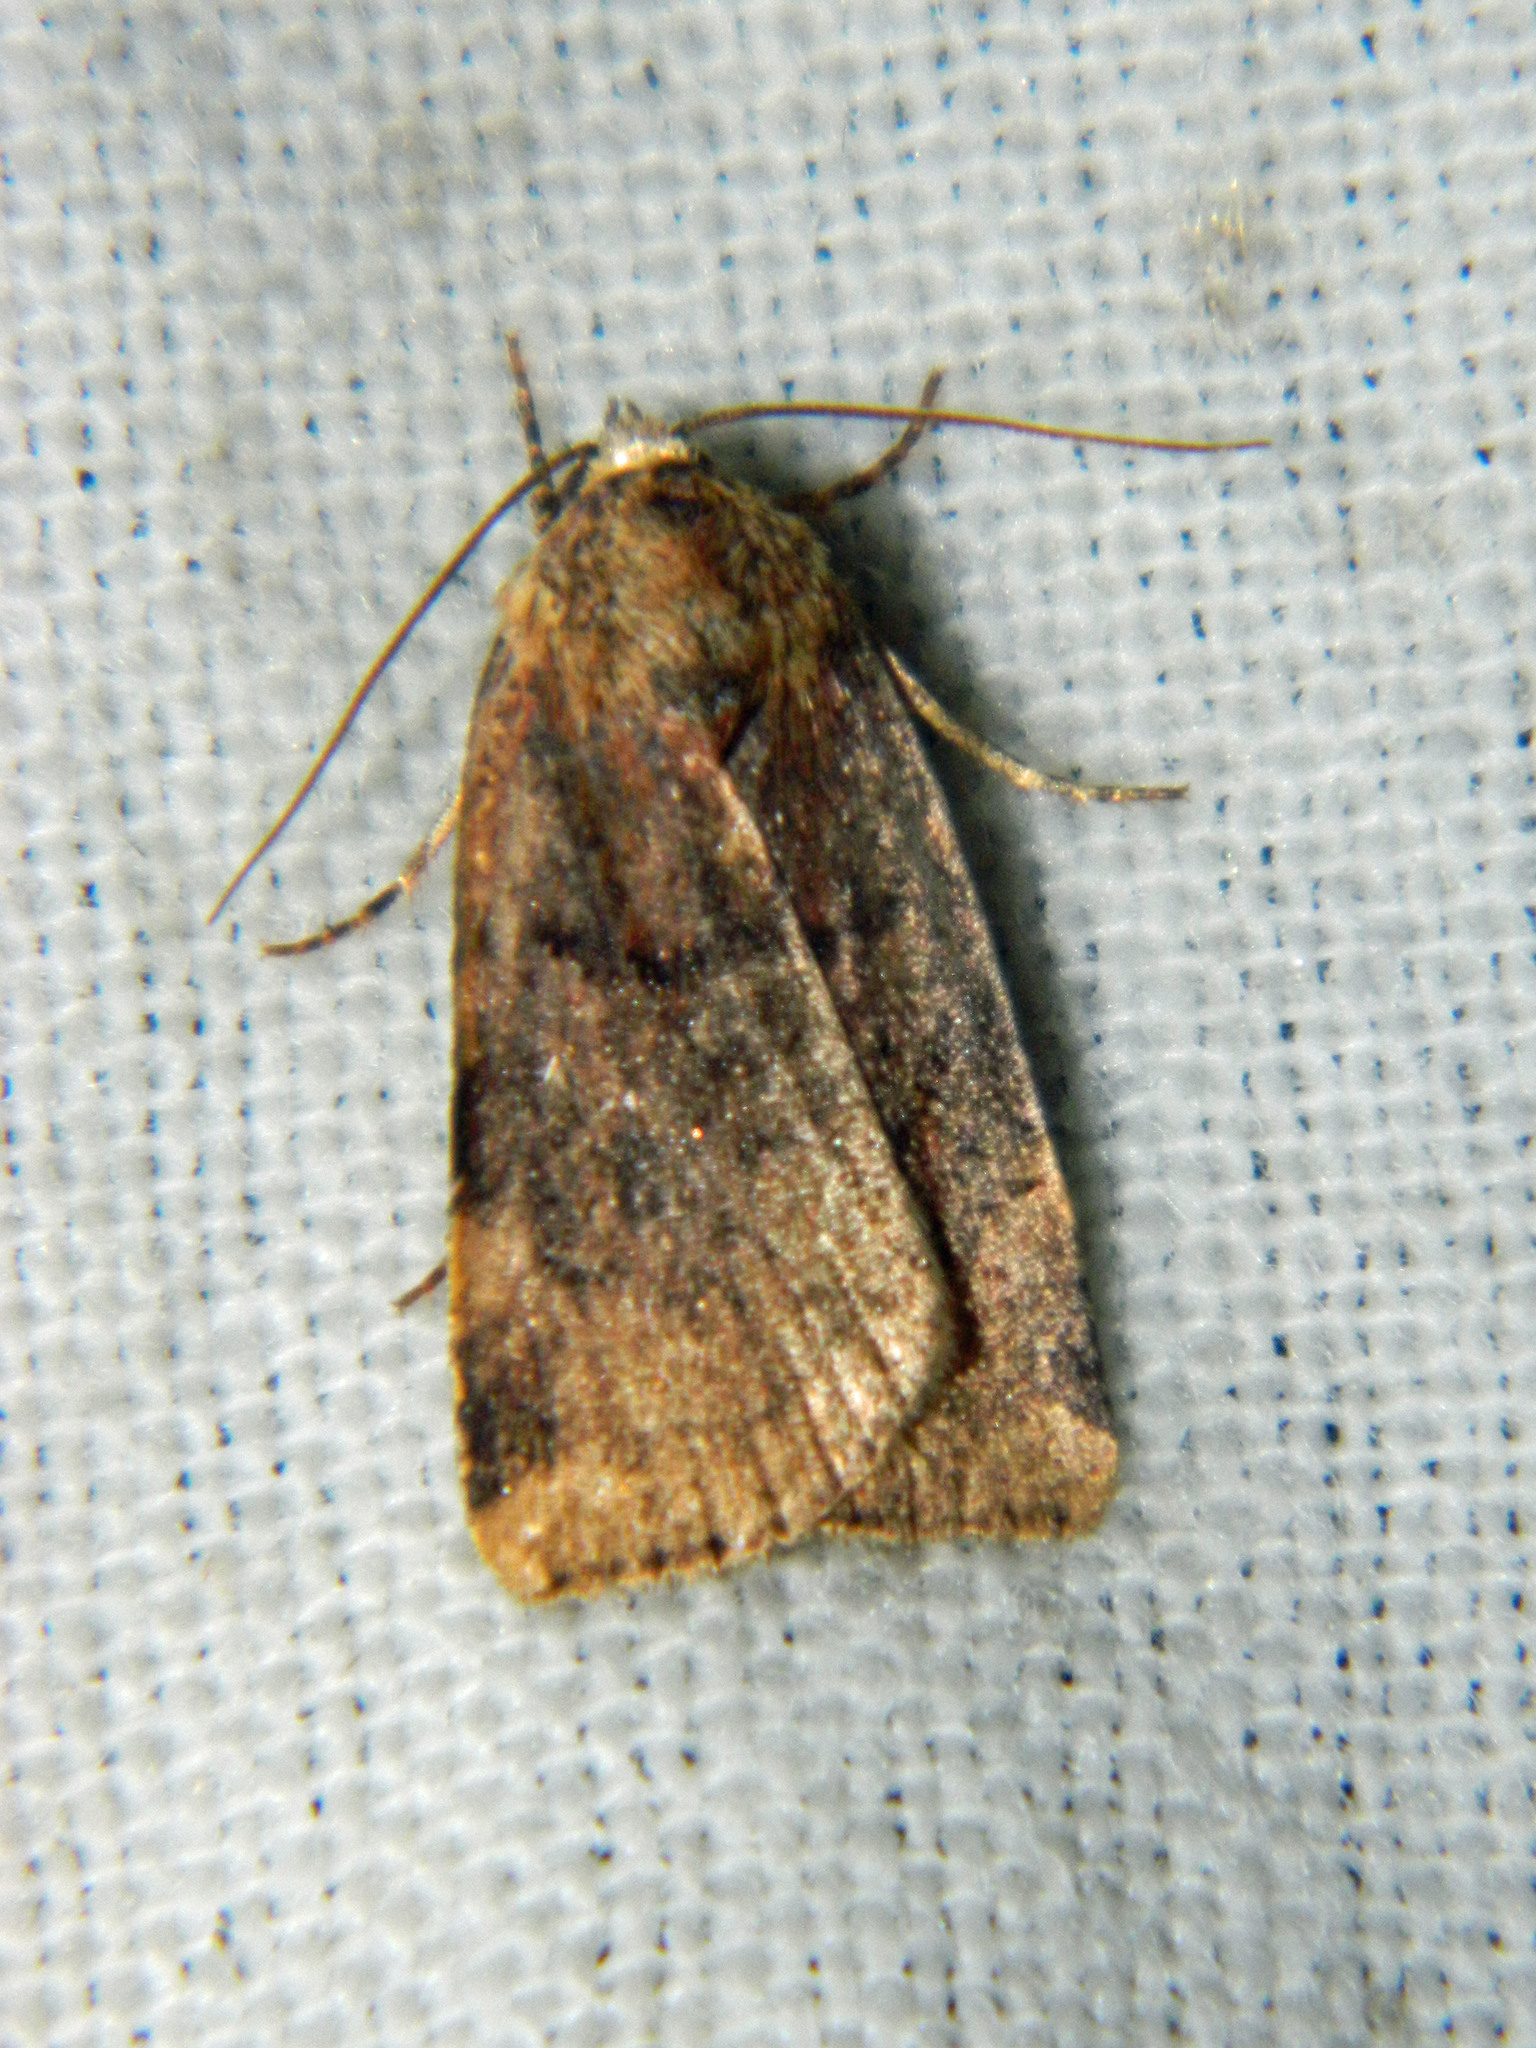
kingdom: Animalia
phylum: Arthropoda
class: Insecta
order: Lepidoptera
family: Noctuidae
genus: Cryptocala
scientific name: Cryptocala acadiensis
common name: Catocaline dart
